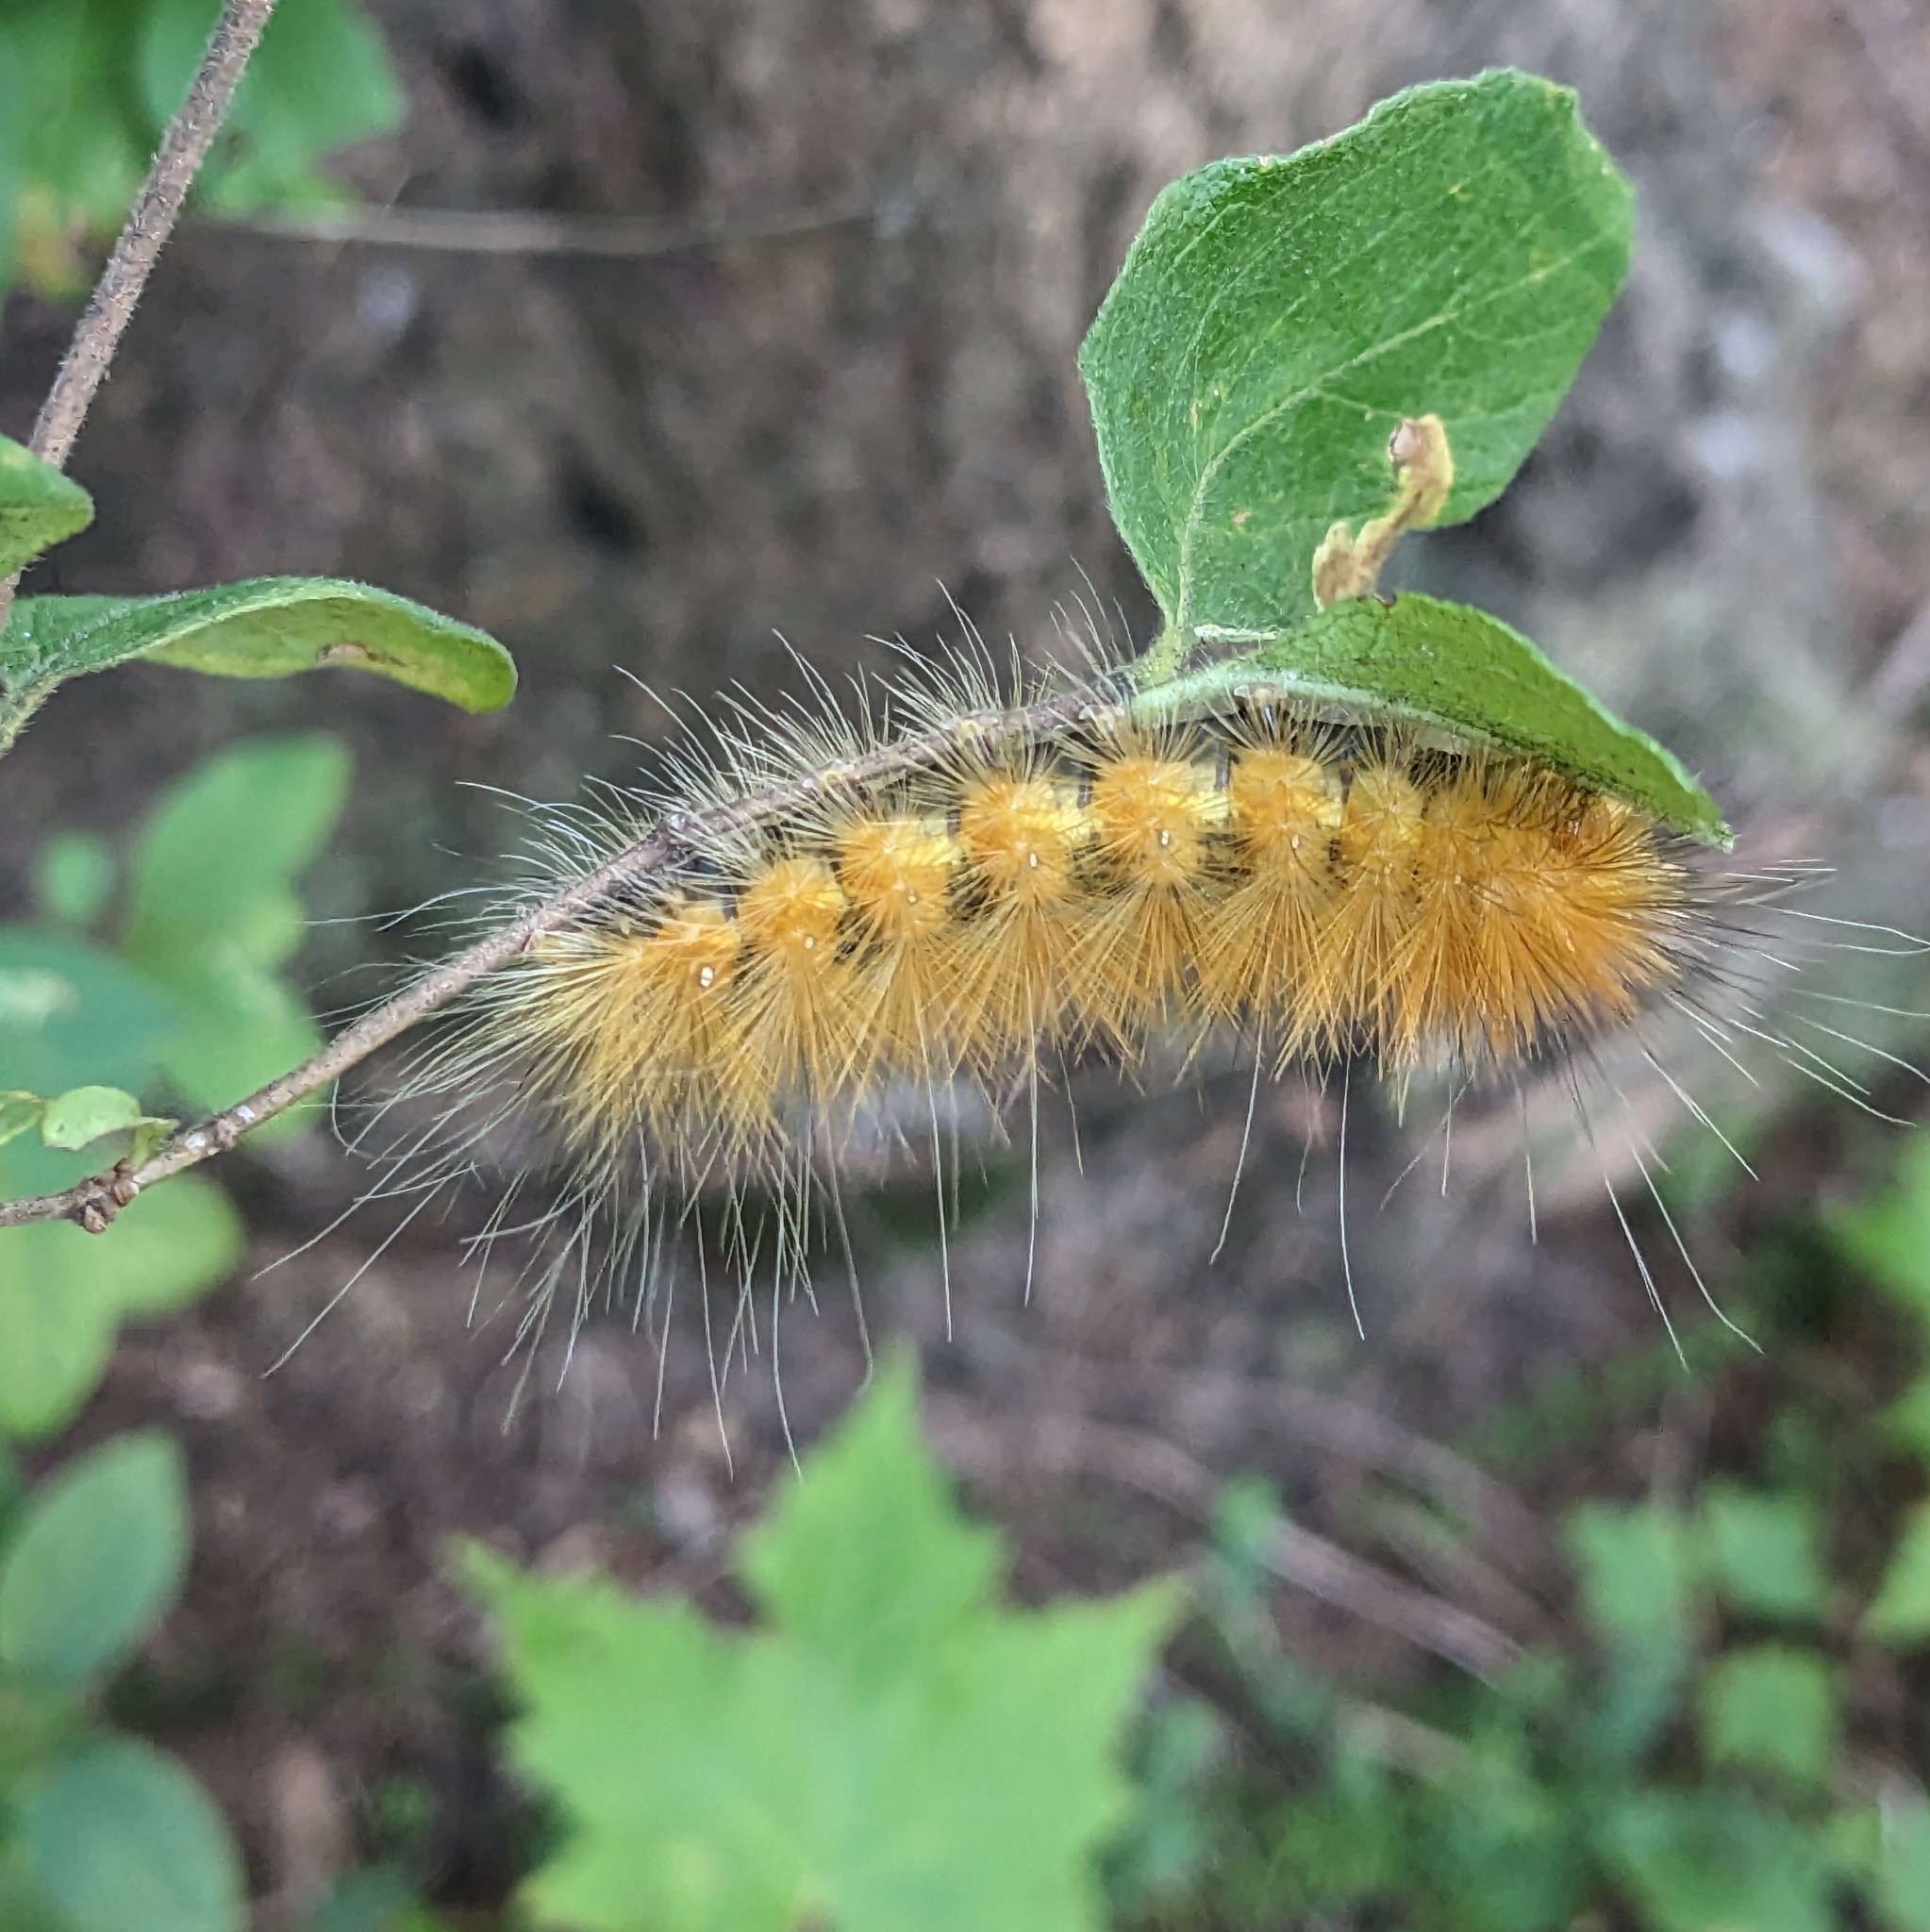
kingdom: Animalia
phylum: Arthropoda
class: Insecta
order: Lepidoptera
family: Erebidae
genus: Spilosoma
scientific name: Spilosoma virginica
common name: Virginia tiger moth
